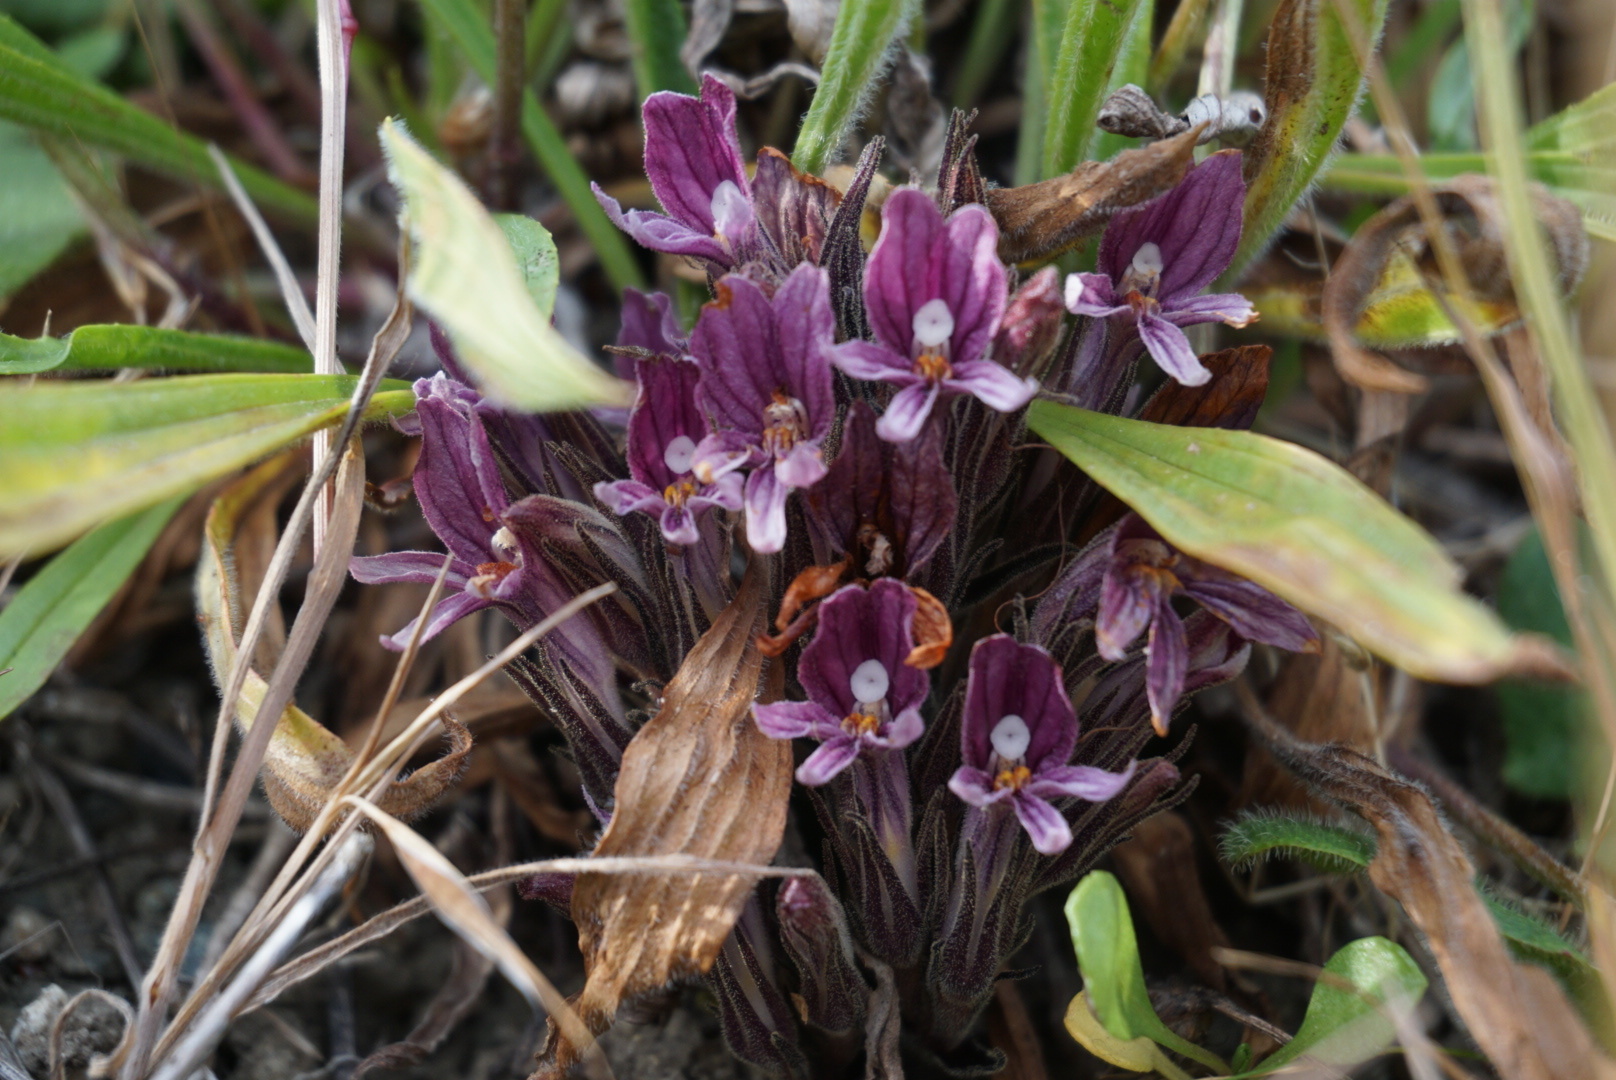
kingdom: Plantae
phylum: Tracheophyta
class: Magnoliopsida
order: Lamiales
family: Orobanchaceae
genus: Aphyllon
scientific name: Aphyllon californicum
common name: California broomrape
